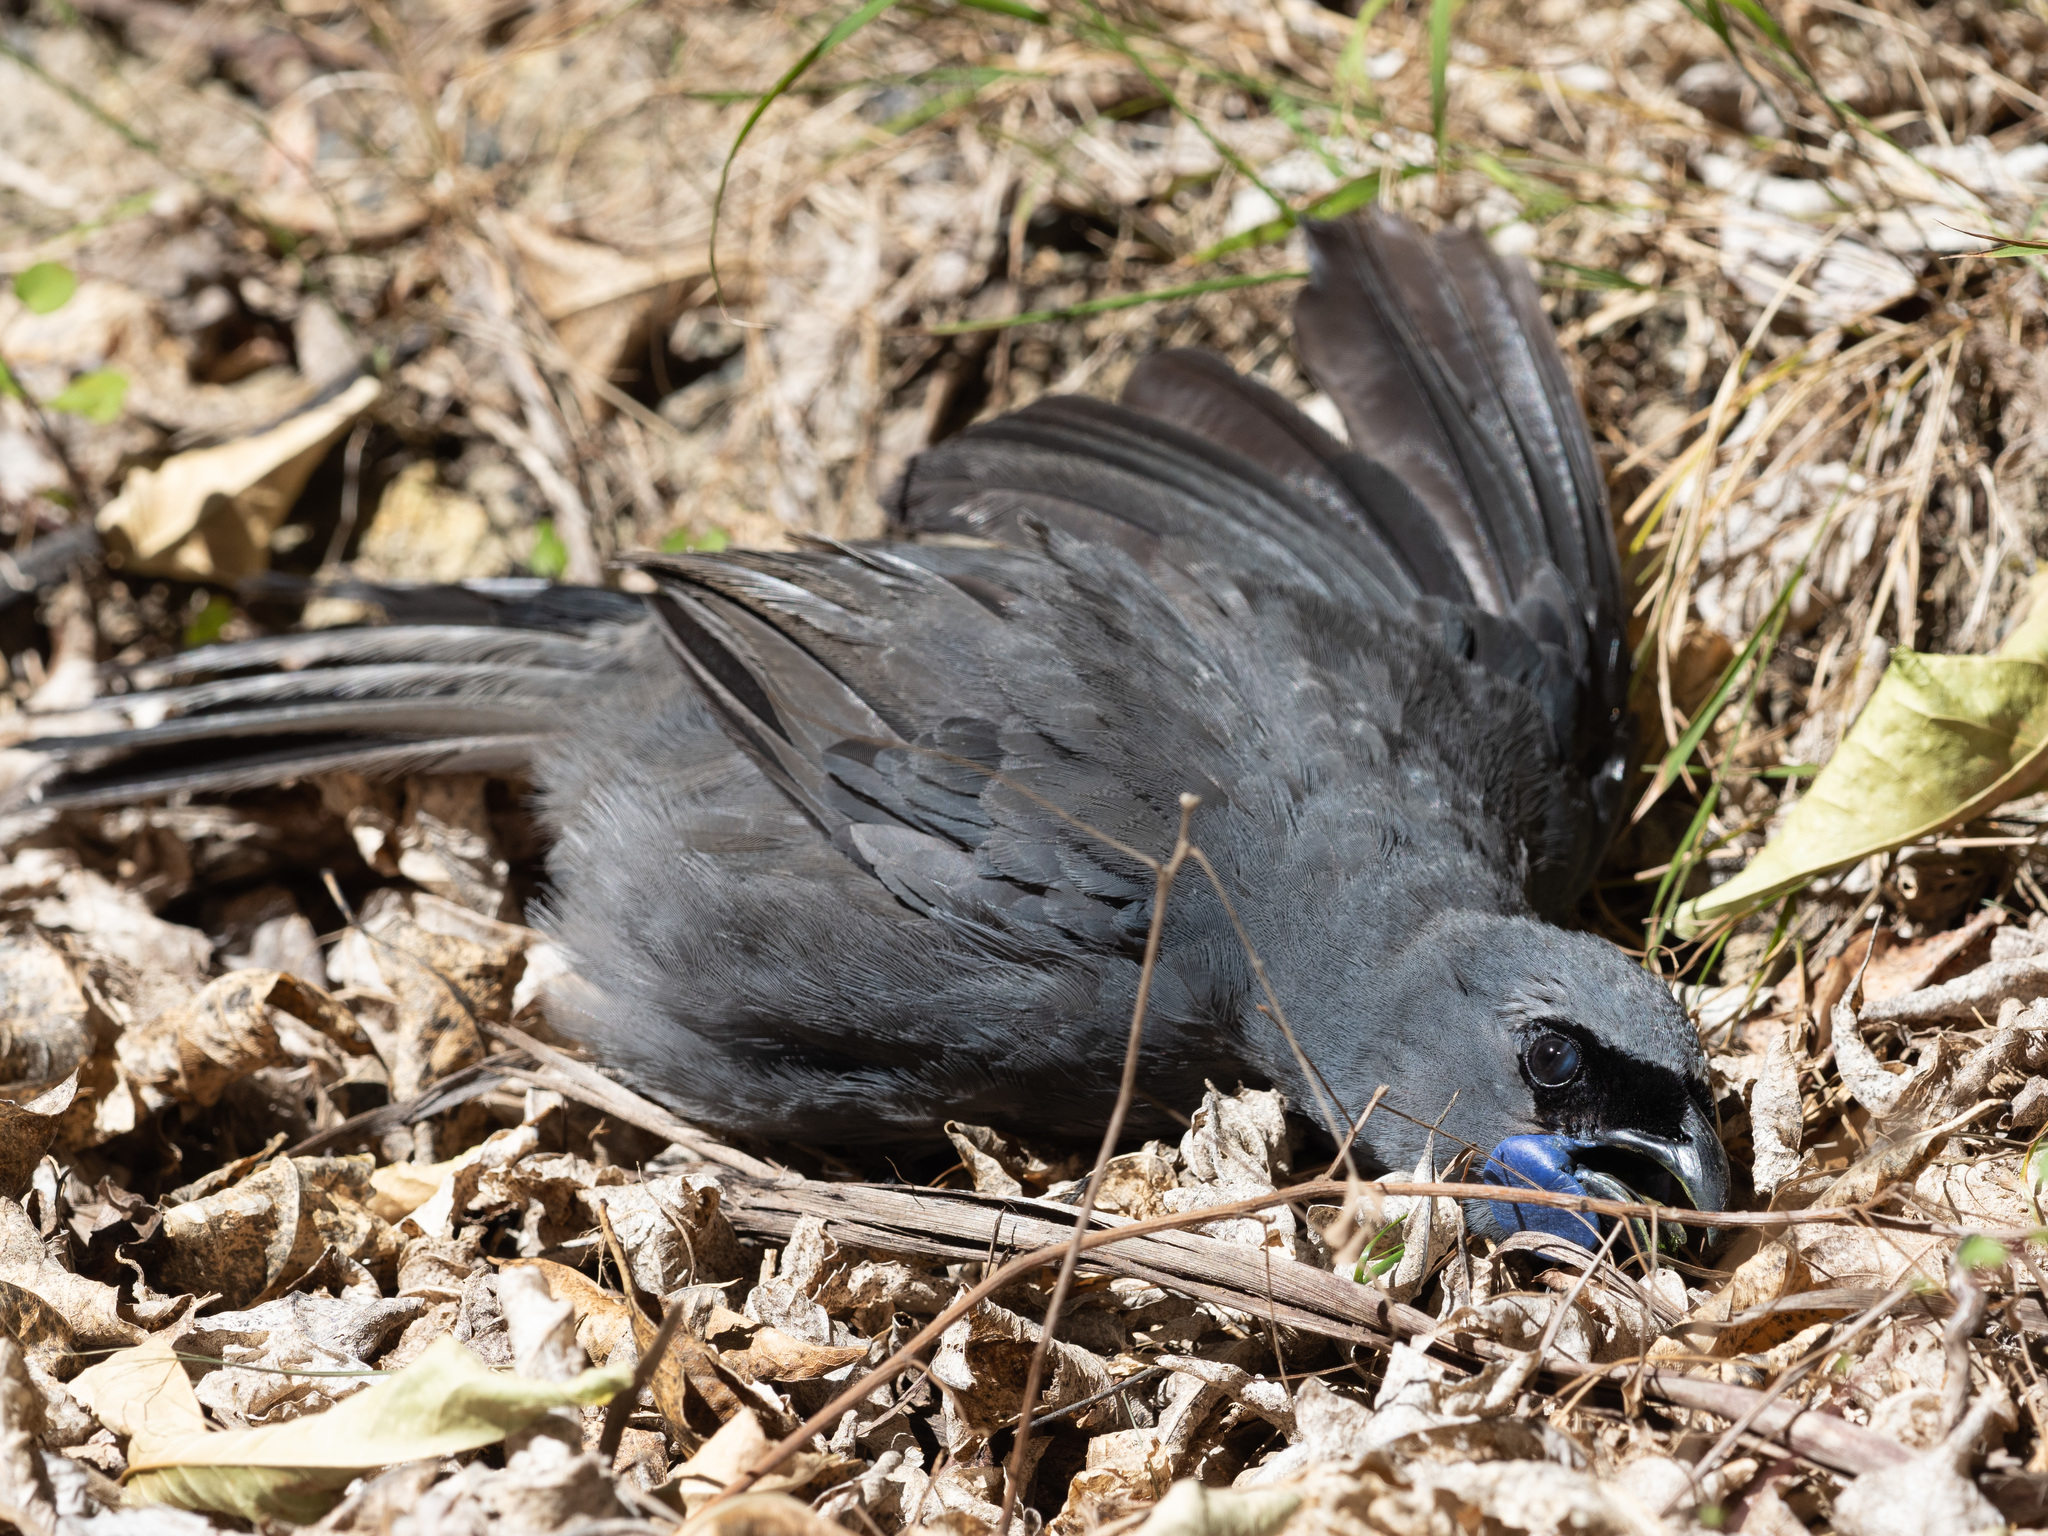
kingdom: Animalia
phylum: Chordata
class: Aves
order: Passeriformes
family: Callaeatidae
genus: Callaeas
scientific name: Callaeas cinereus
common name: South island kokako
